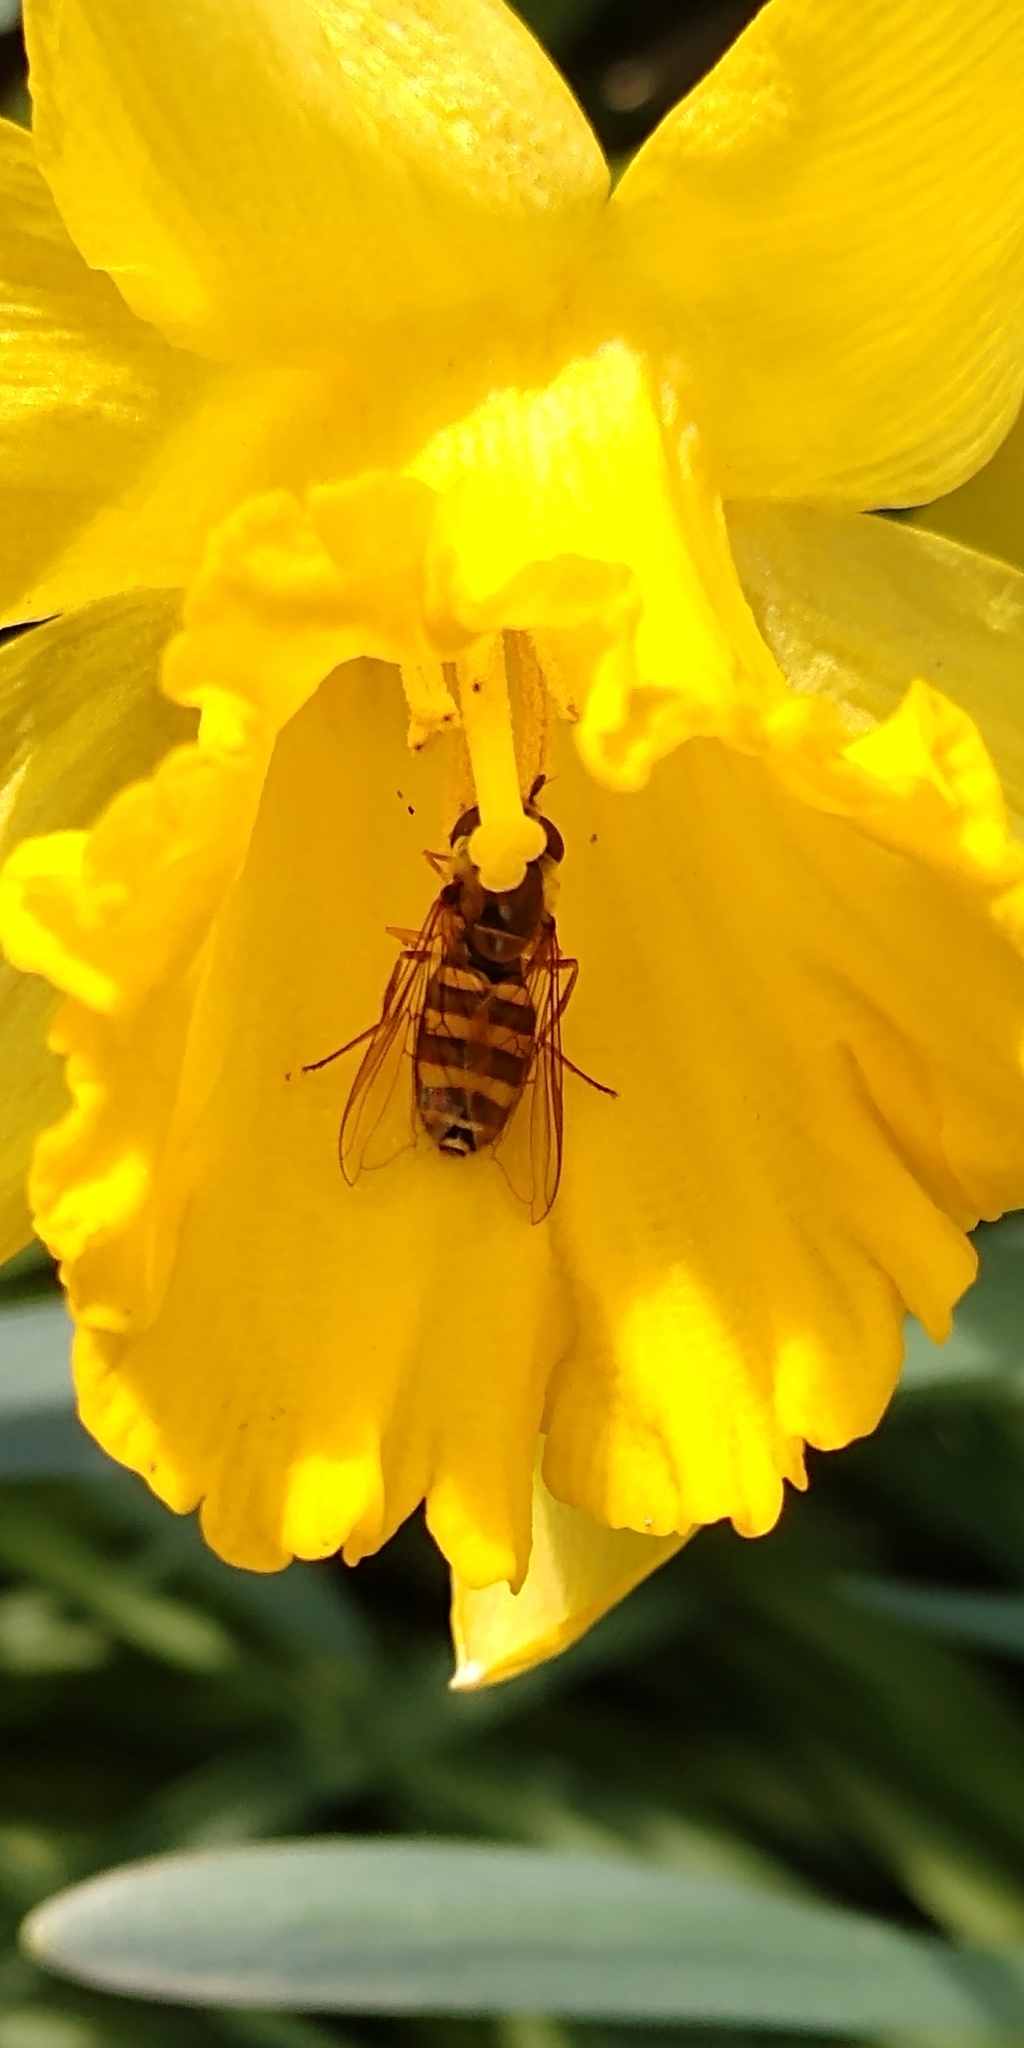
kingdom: Animalia
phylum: Arthropoda
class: Insecta
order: Diptera
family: Syrphidae
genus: Eupeodes
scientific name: Eupeodes
